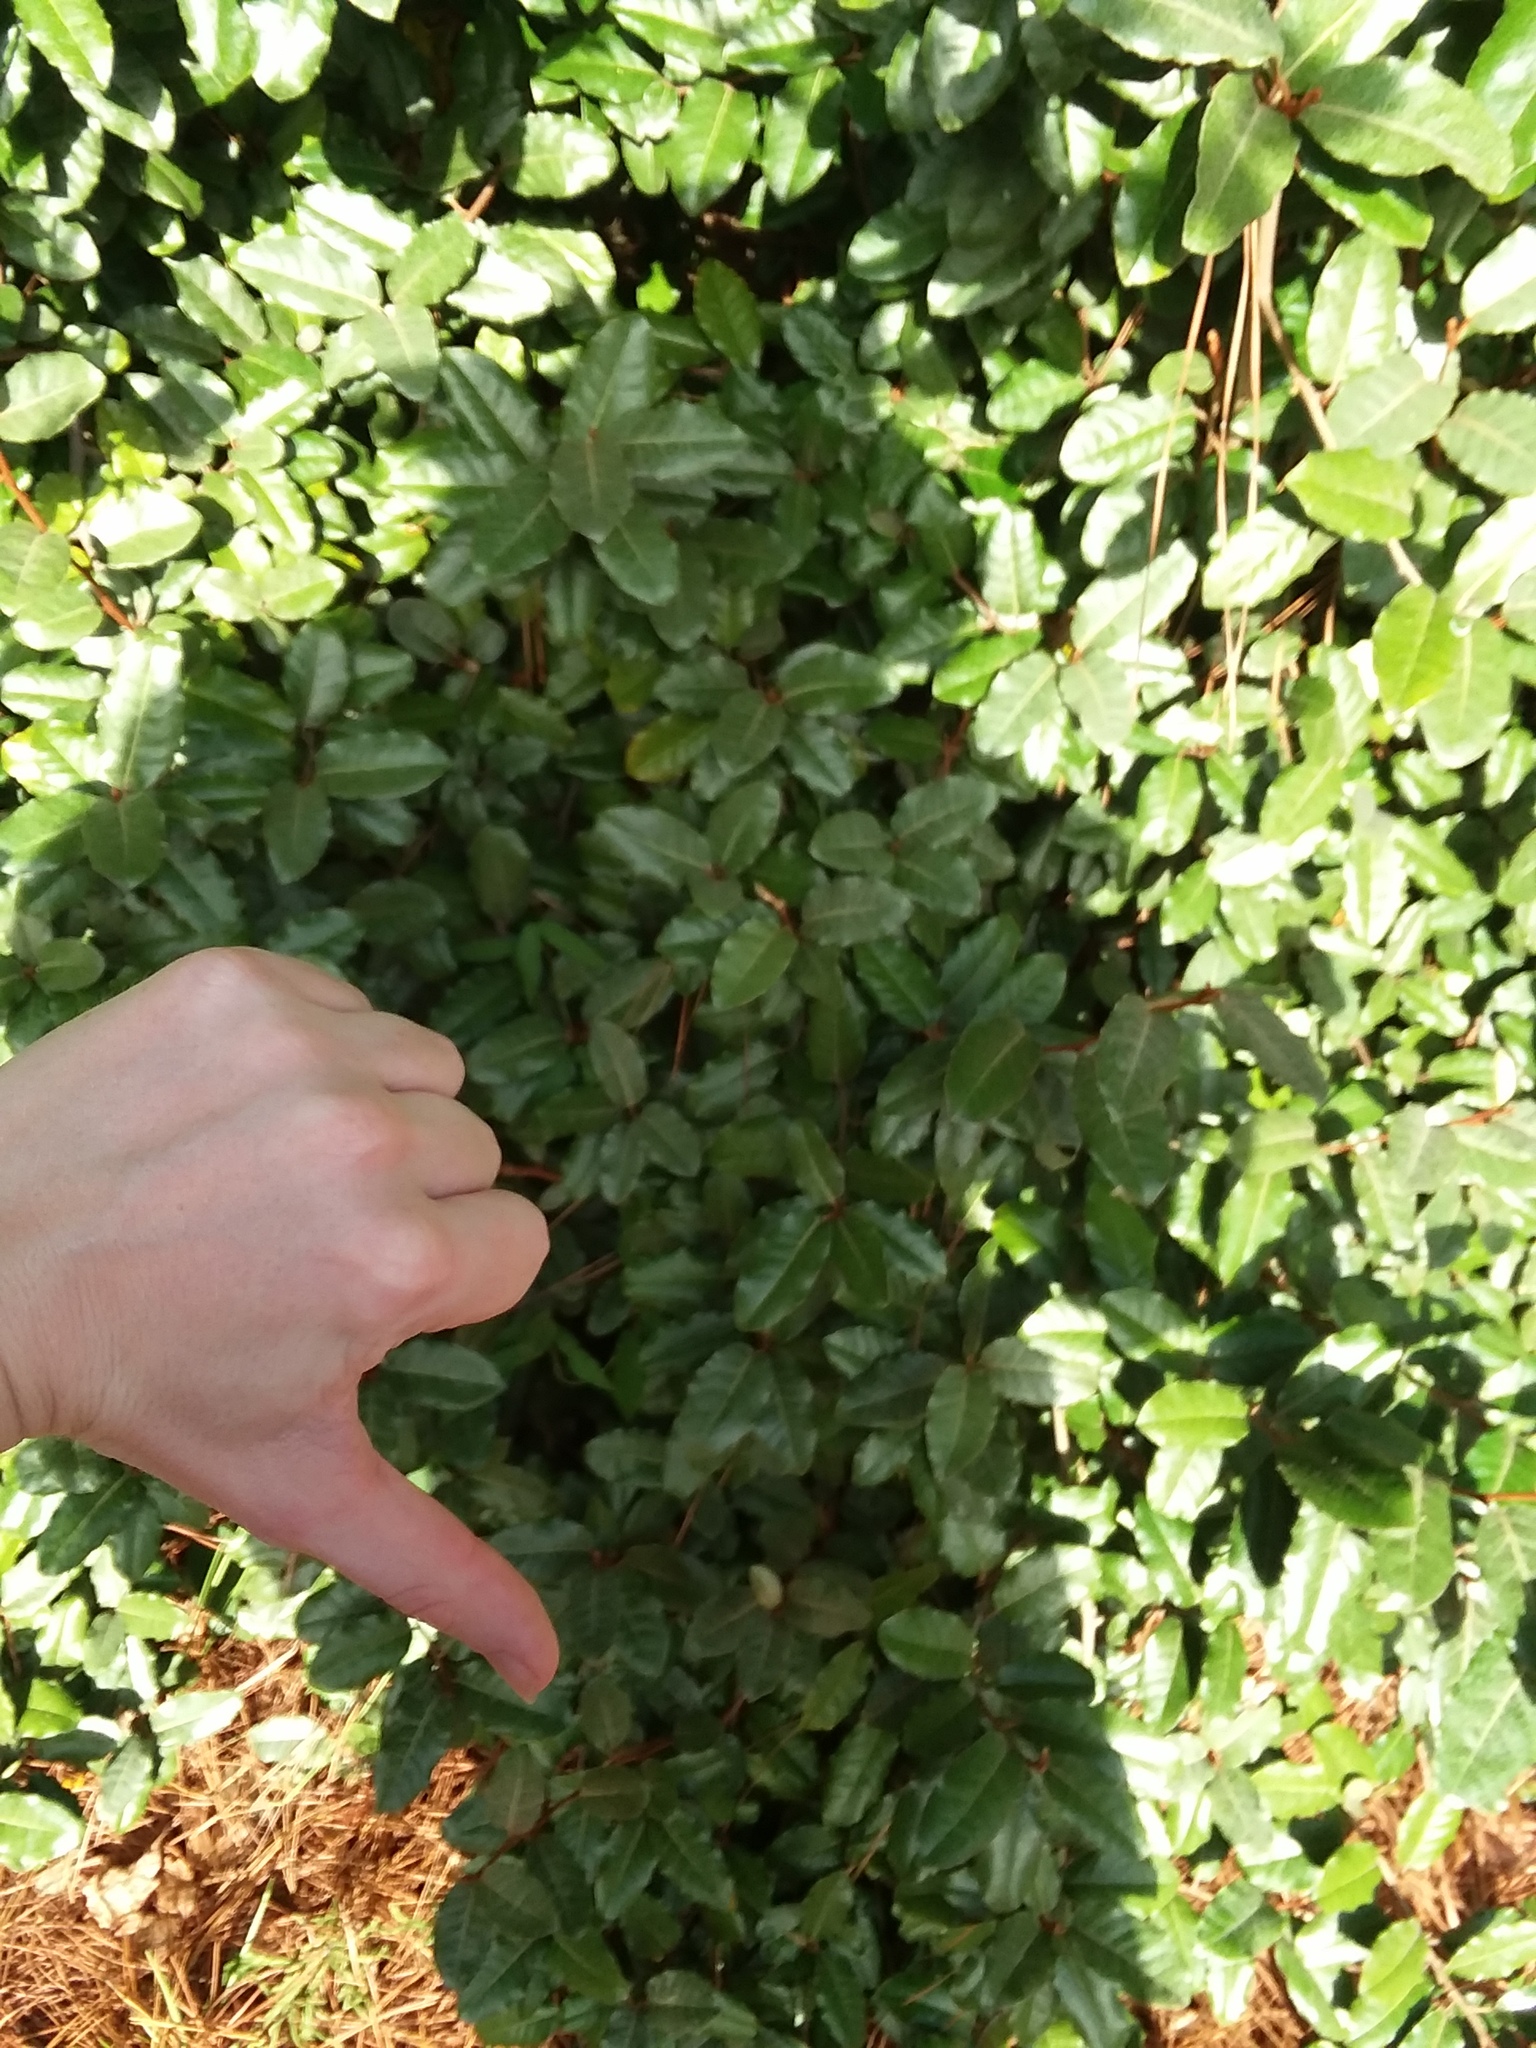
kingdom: Plantae
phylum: Tracheophyta
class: Magnoliopsida
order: Rosales
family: Elaeagnaceae
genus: Elaeagnus
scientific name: Elaeagnus pungens
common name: Spiny oleaster
